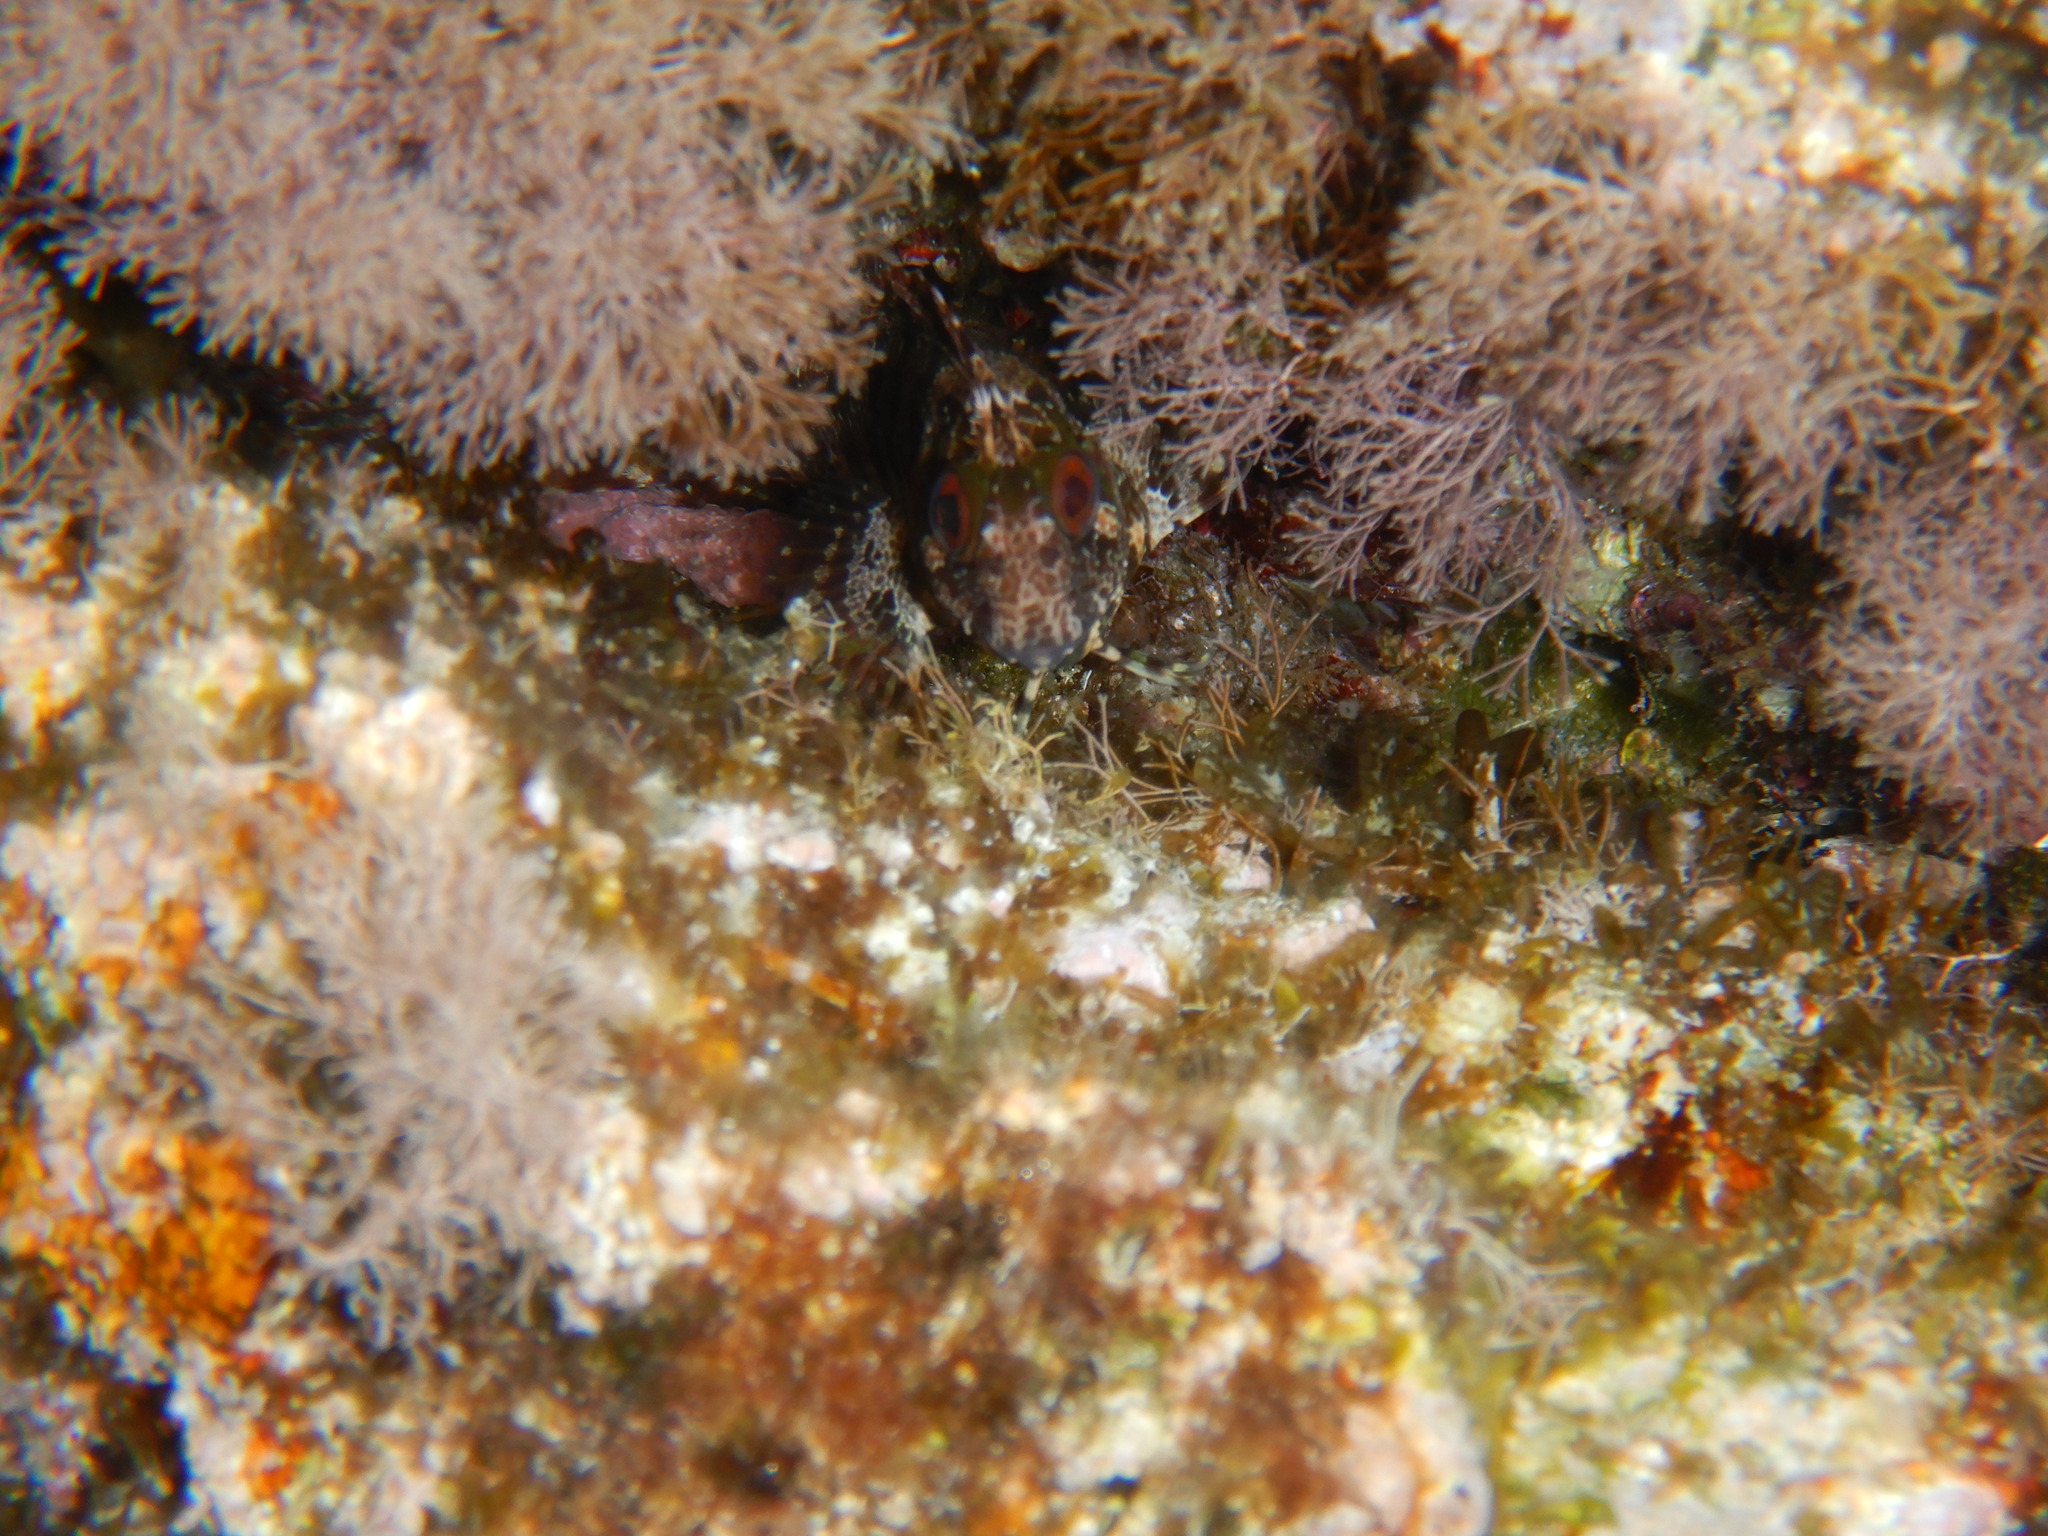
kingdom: Animalia
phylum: Chordata
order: Perciformes
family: Blenniidae
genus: Parablennius
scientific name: Parablennius gattorugine
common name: Tompot blenny
